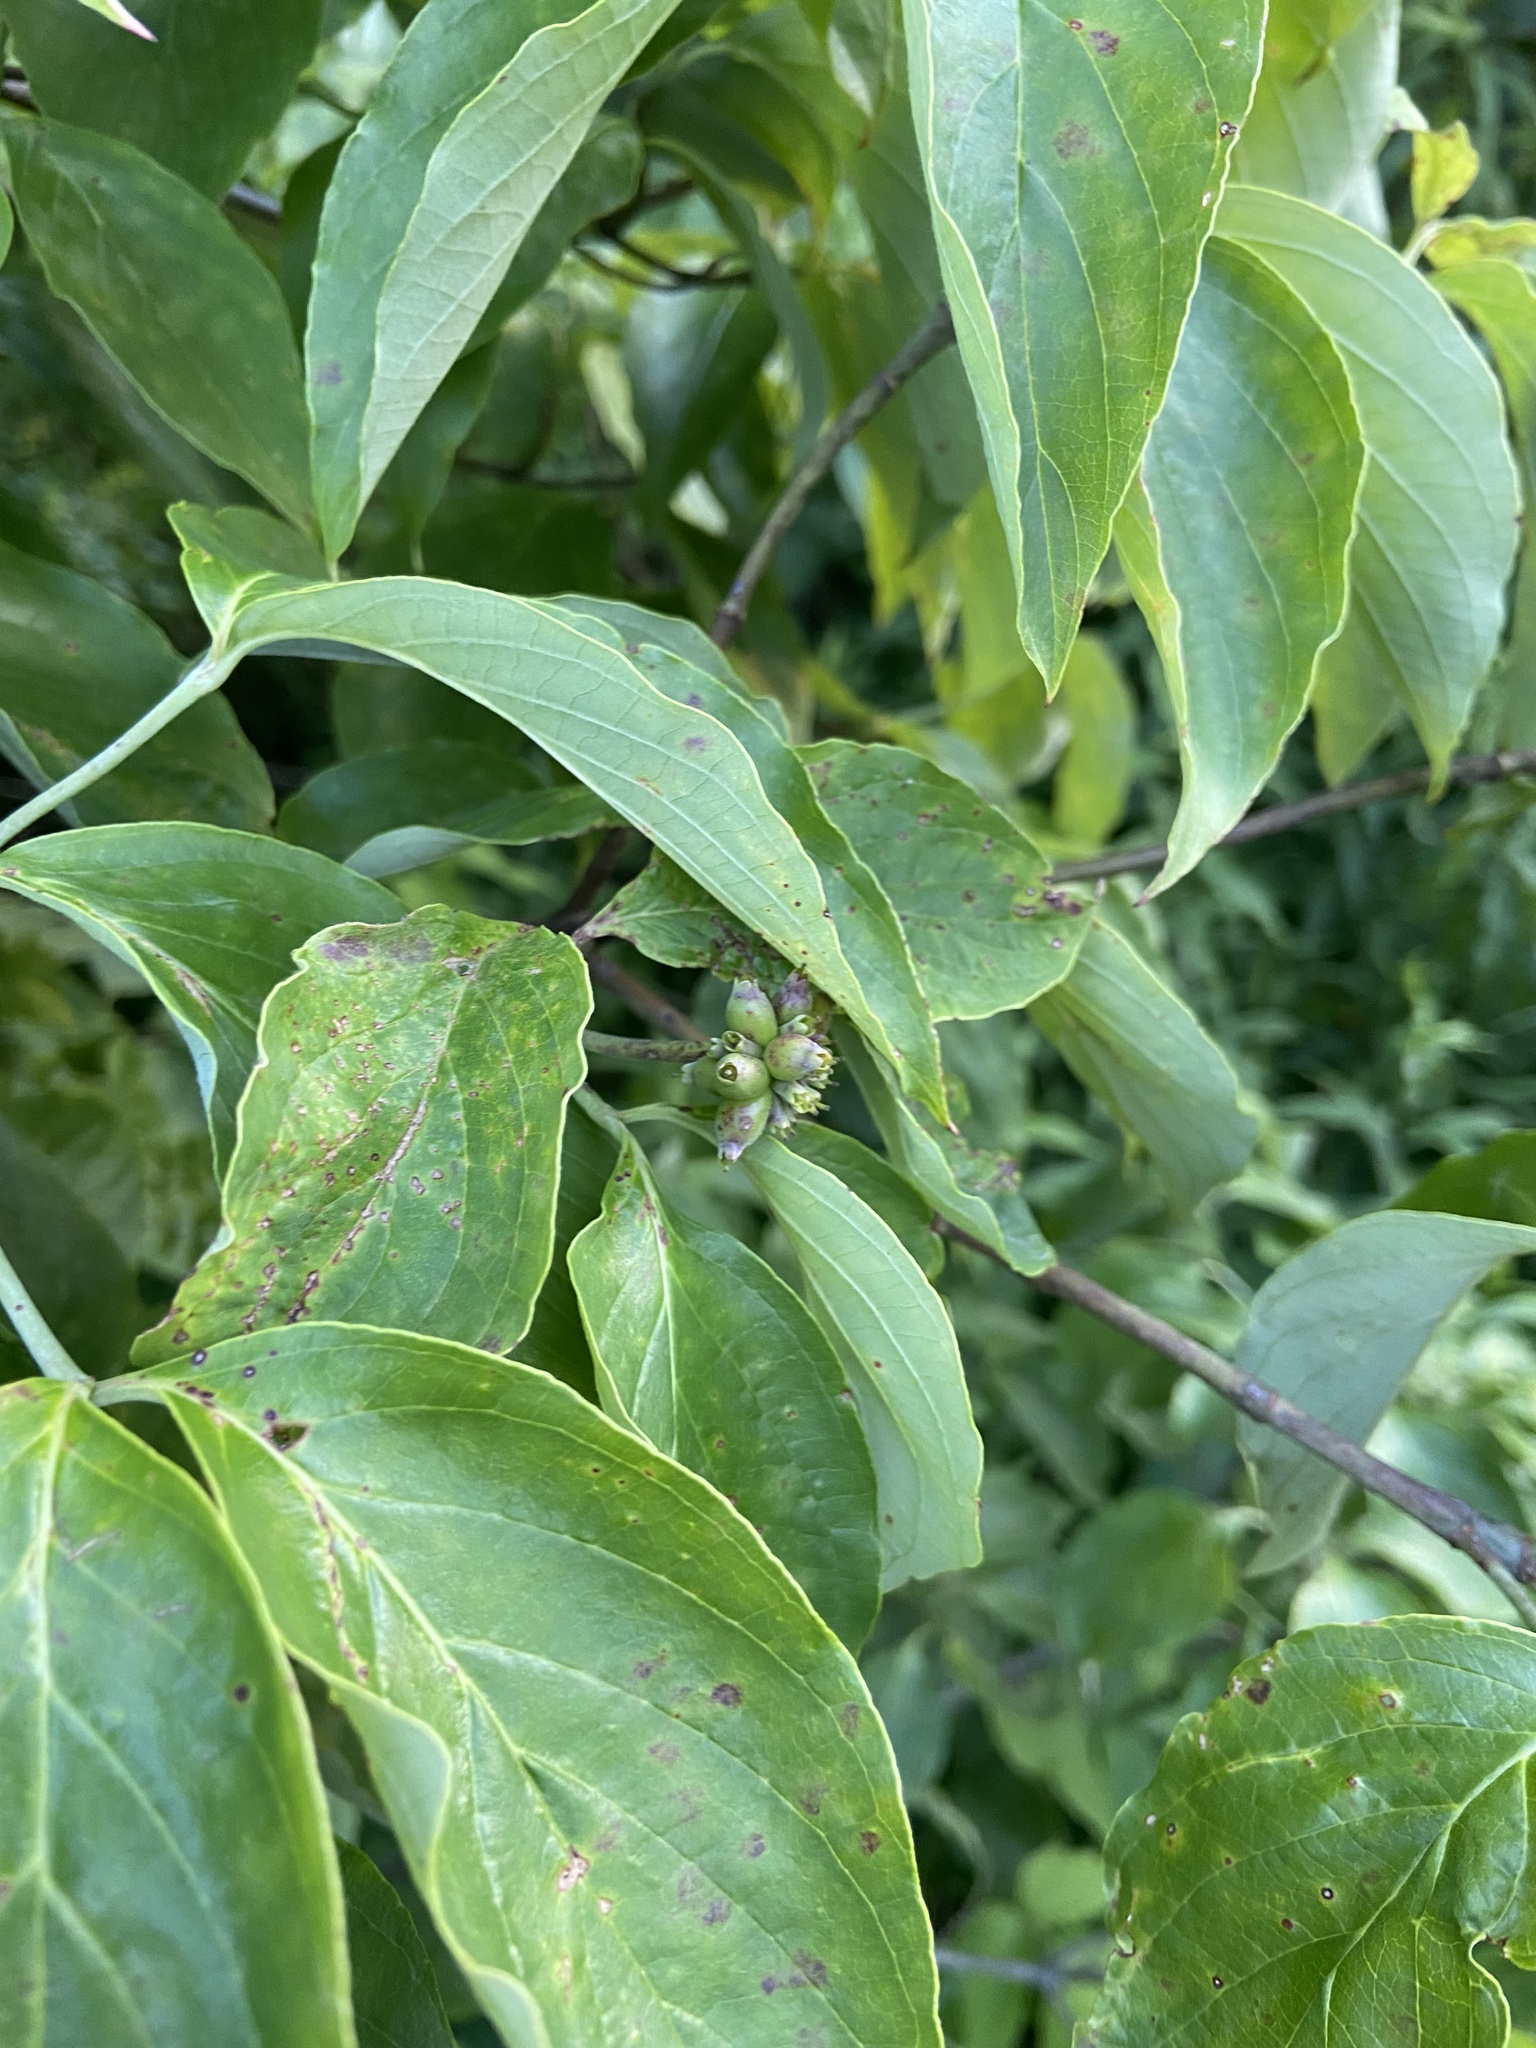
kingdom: Plantae
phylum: Tracheophyta
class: Magnoliopsida
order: Cornales
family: Cornaceae
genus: Cornus
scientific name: Cornus florida
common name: Flowering dogwood
